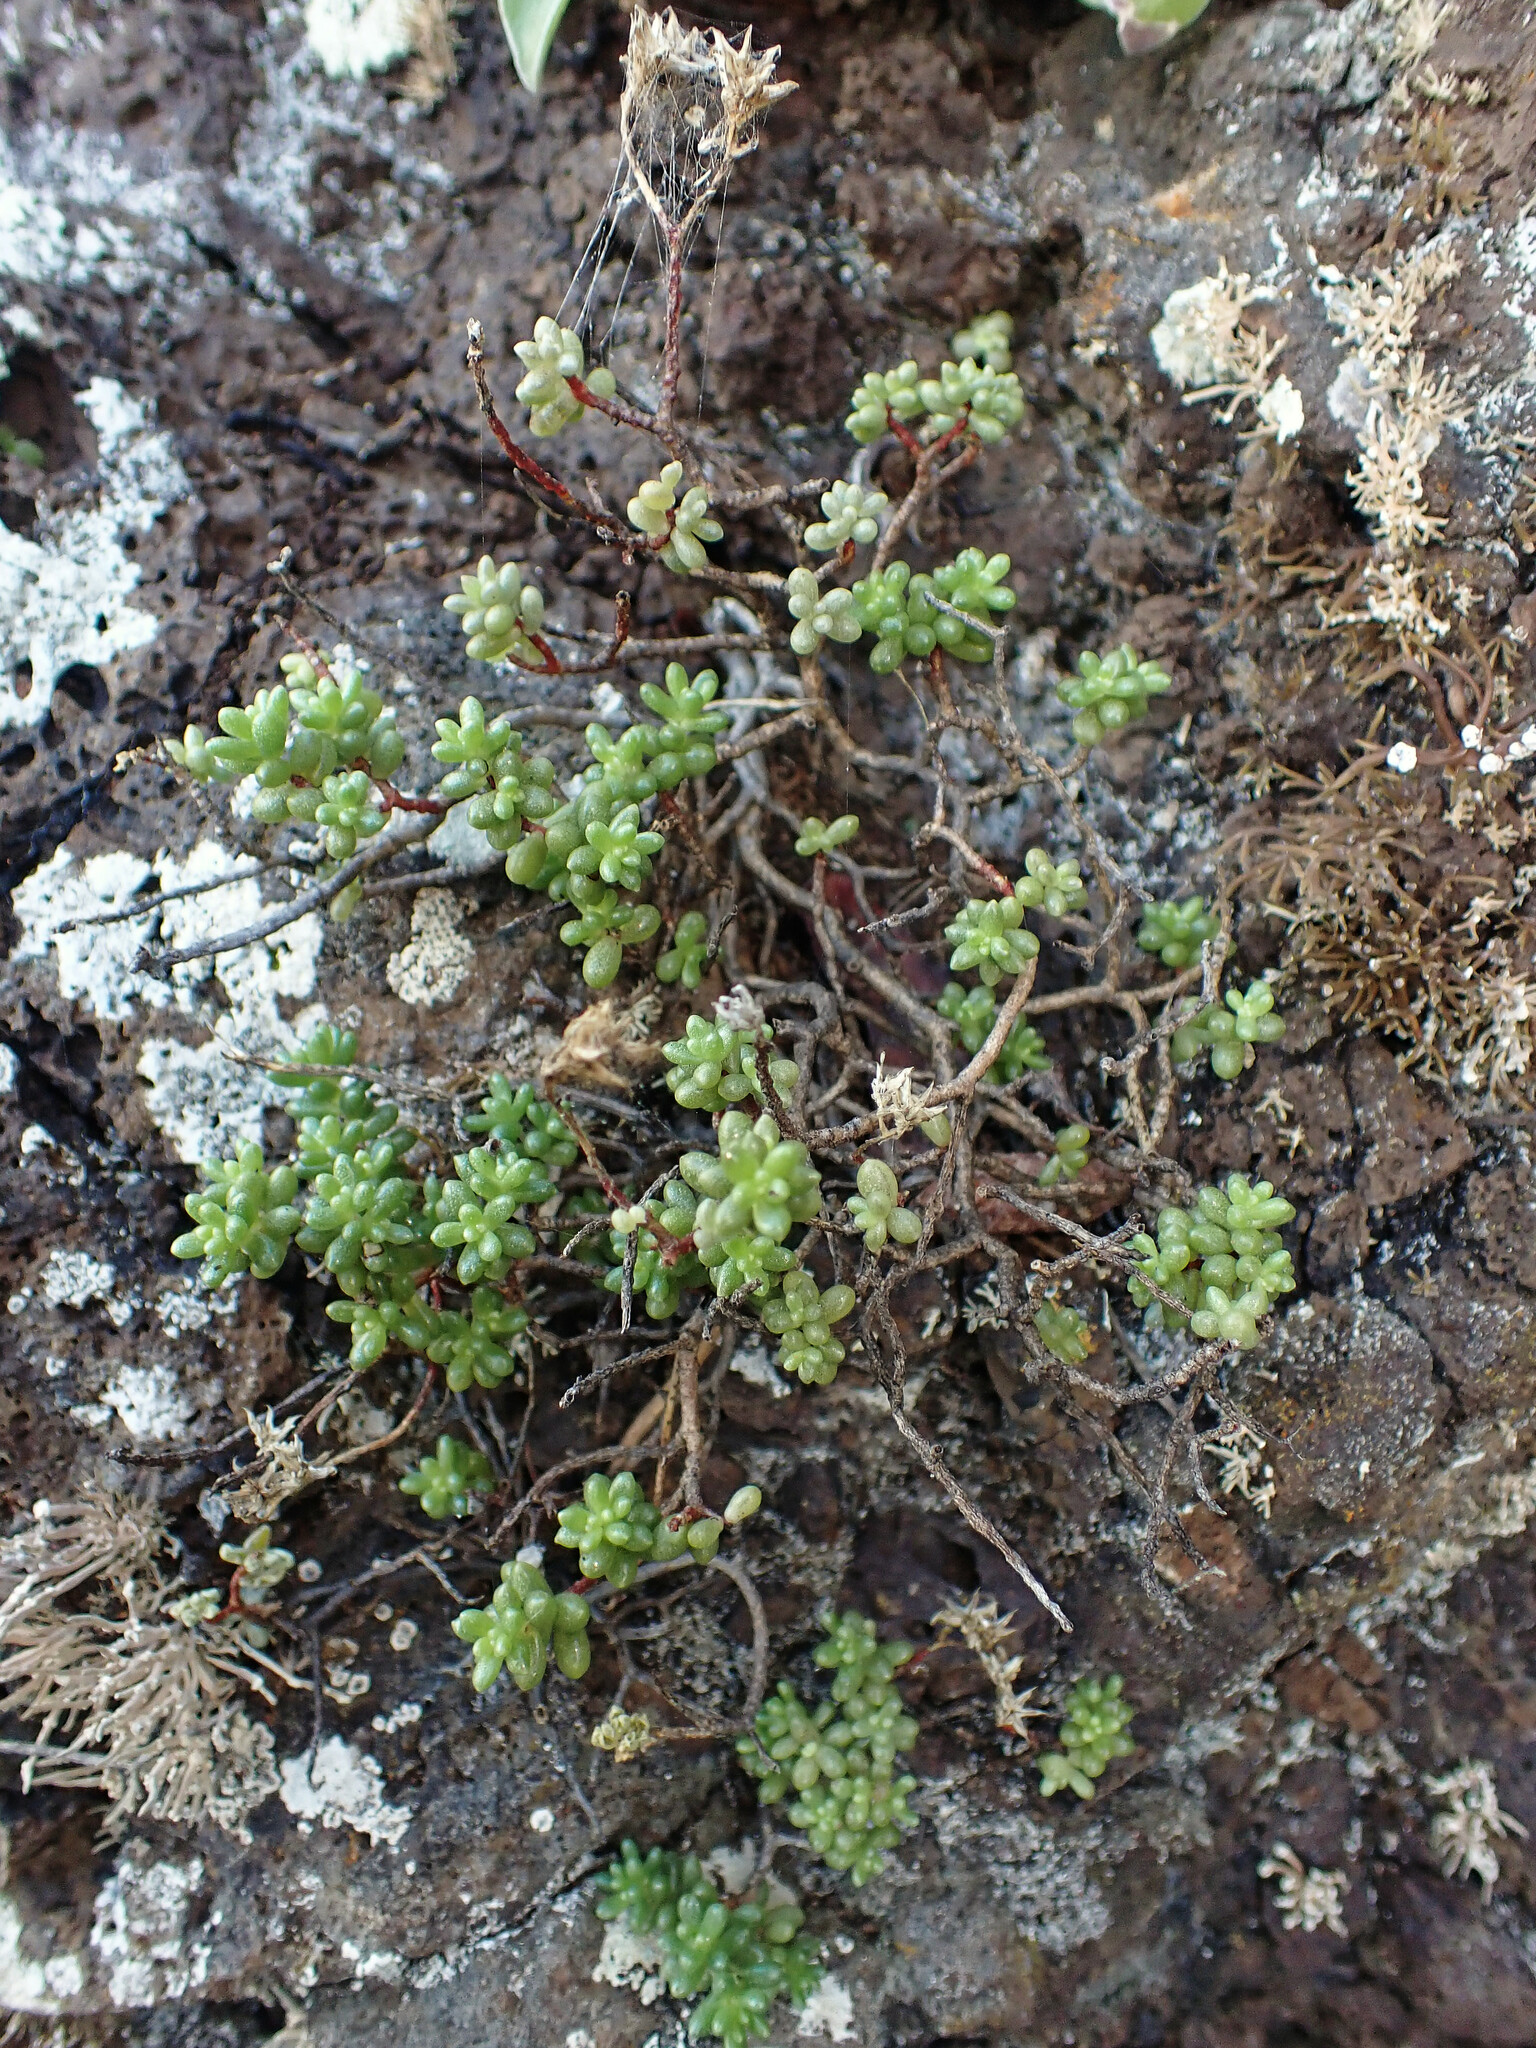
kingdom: Plantae
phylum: Tracheophyta
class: Magnoliopsida
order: Saxifragales
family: Crassulaceae
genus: Sedum
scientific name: Sedum nudum
